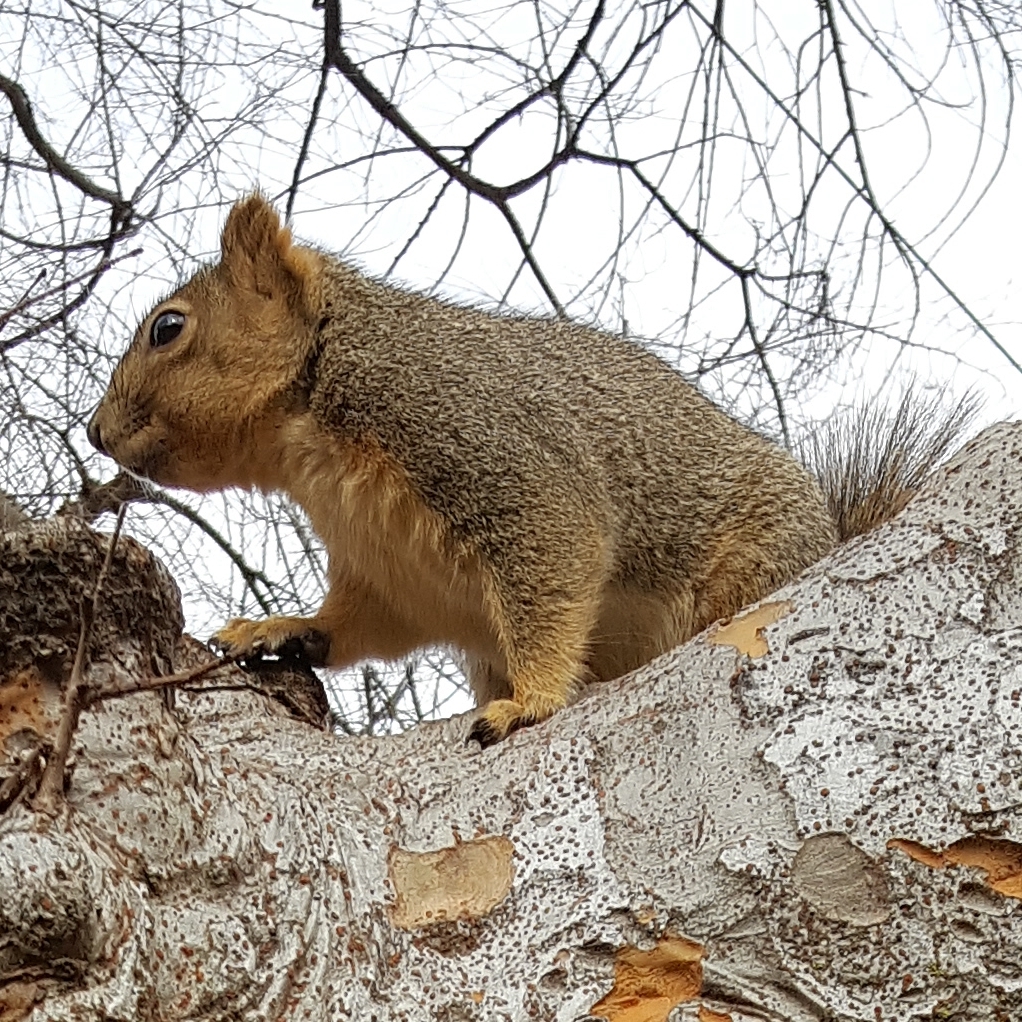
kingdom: Animalia
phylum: Chordata
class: Mammalia
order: Rodentia
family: Sciuridae
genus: Sciurus
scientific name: Sciurus niger
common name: Fox squirrel
